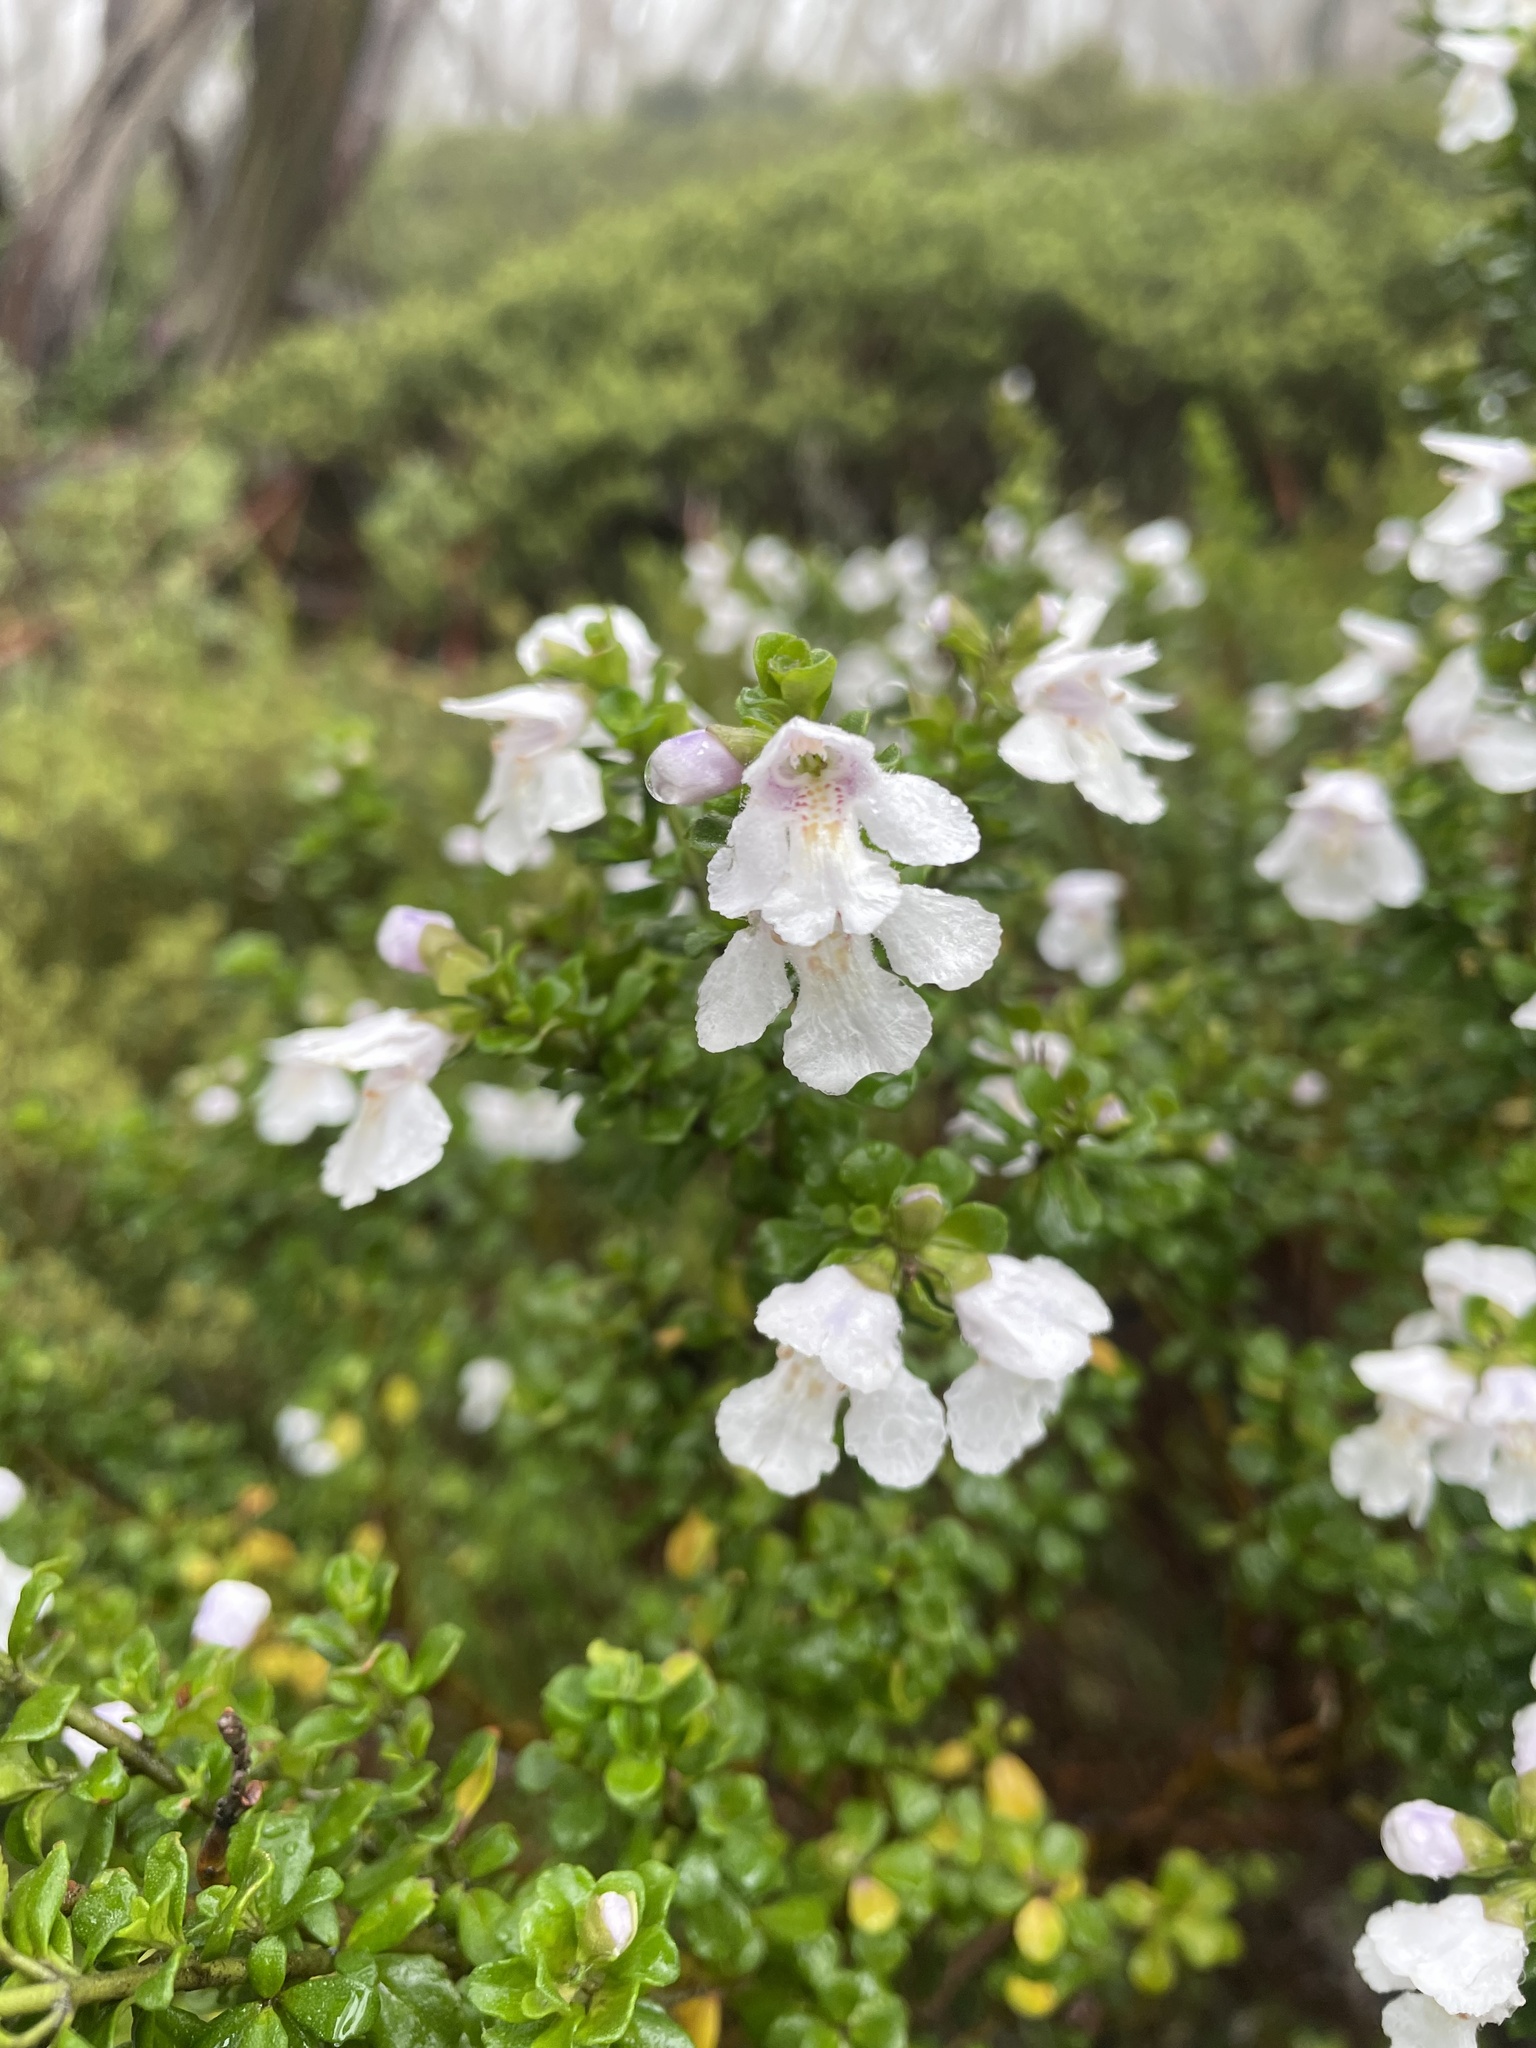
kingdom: Plantae
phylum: Tracheophyta
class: Magnoliopsida
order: Lamiales
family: Lamiaceae
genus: Prostanthera
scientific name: Prostanthera cuneata
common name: Alpine mintbush
